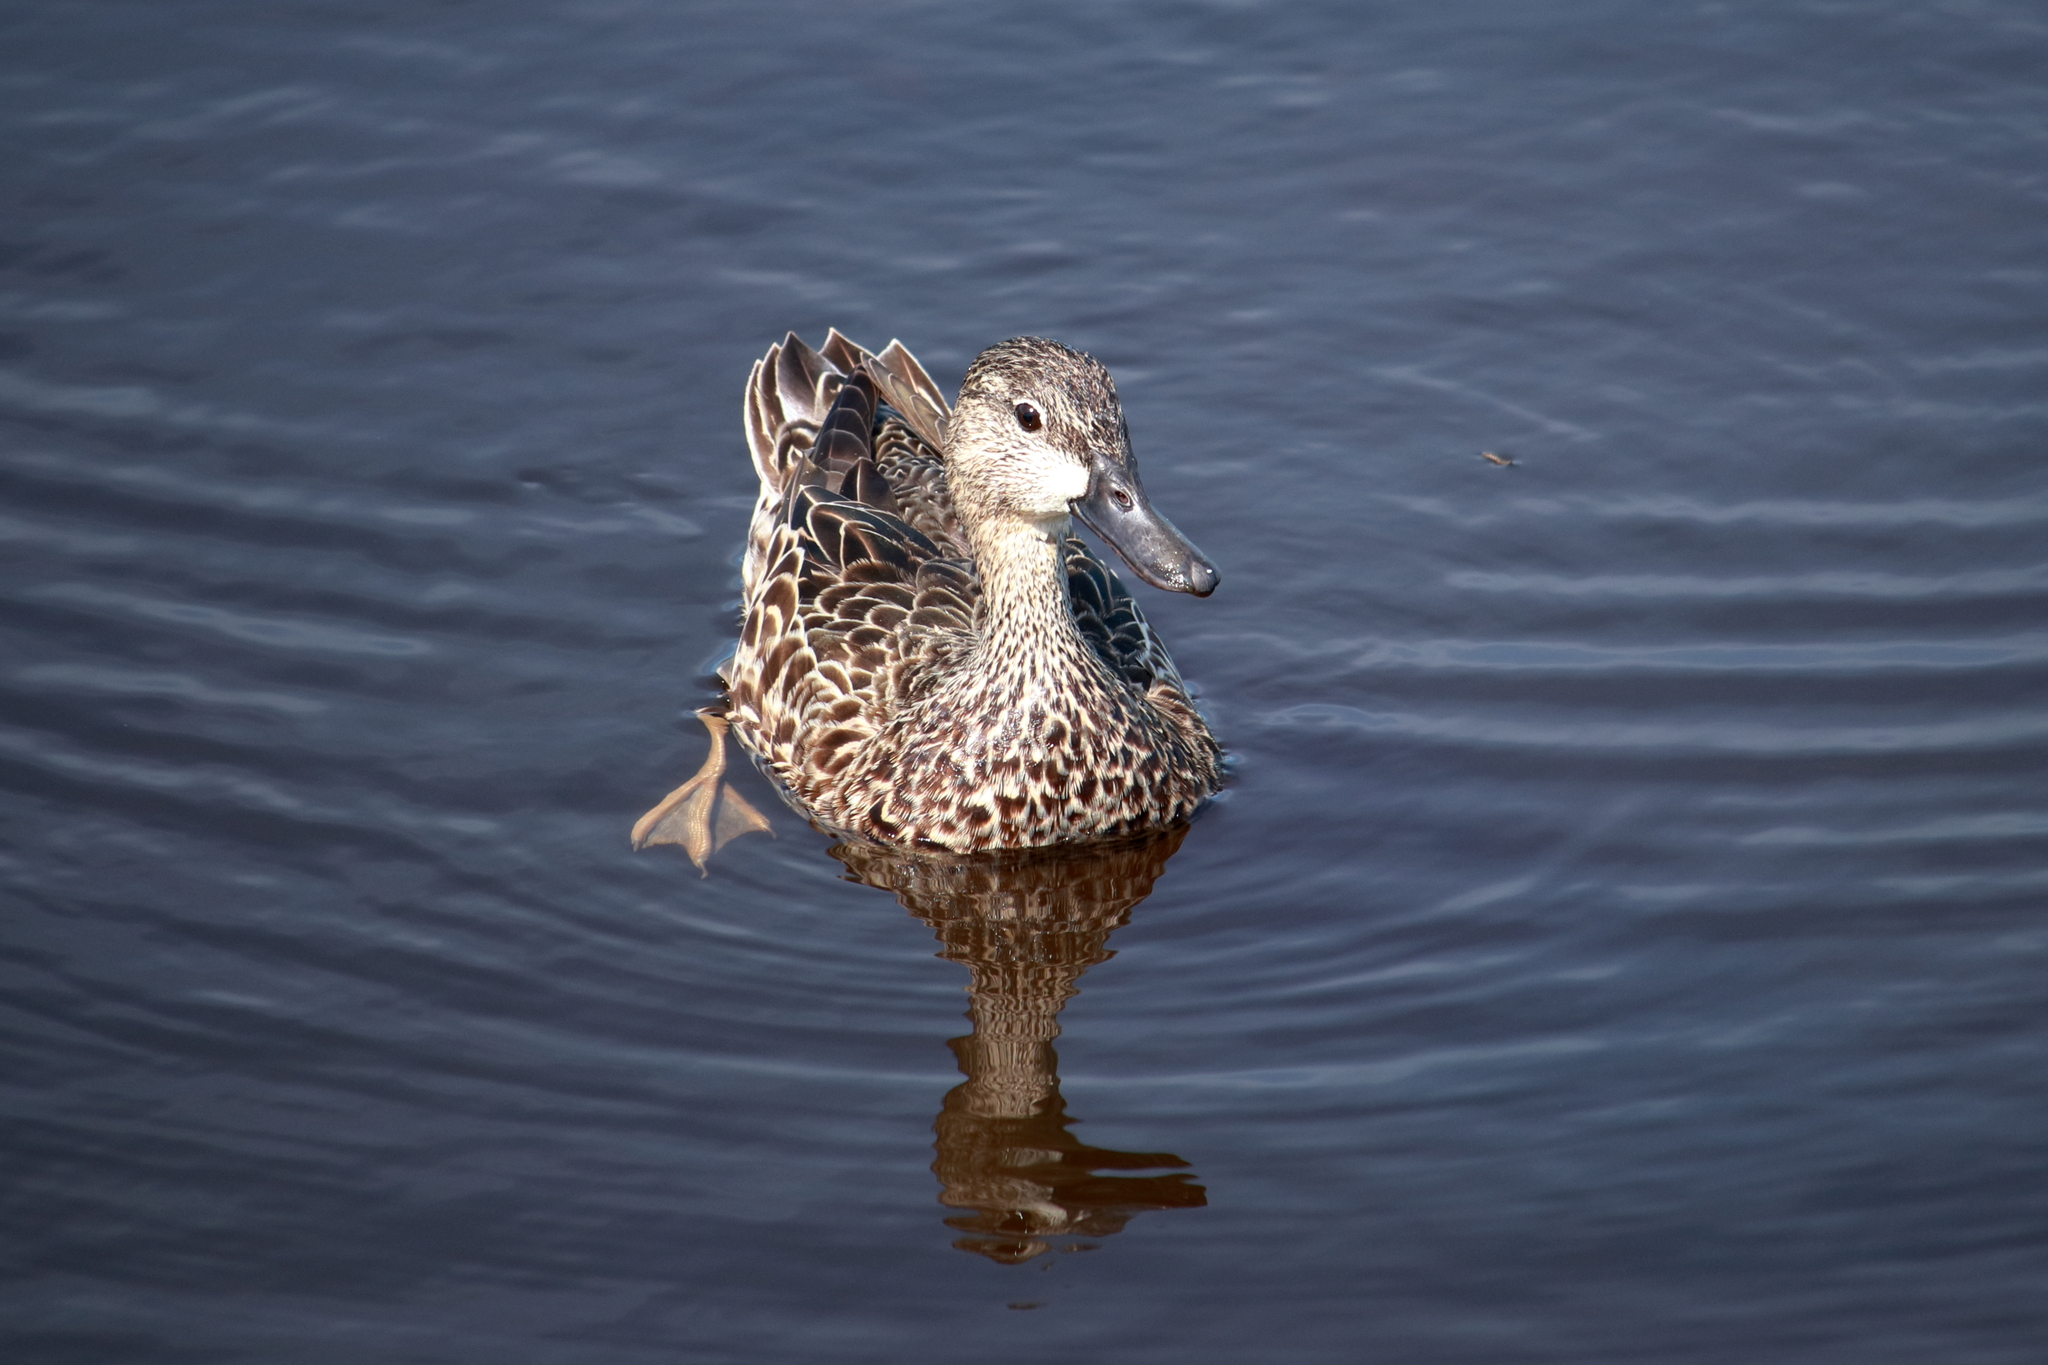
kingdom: Animalia
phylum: Chordata
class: Aves
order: Anseriformes
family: Anatidae
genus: Spatula
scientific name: Spatula discors
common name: Blue-winged teal
